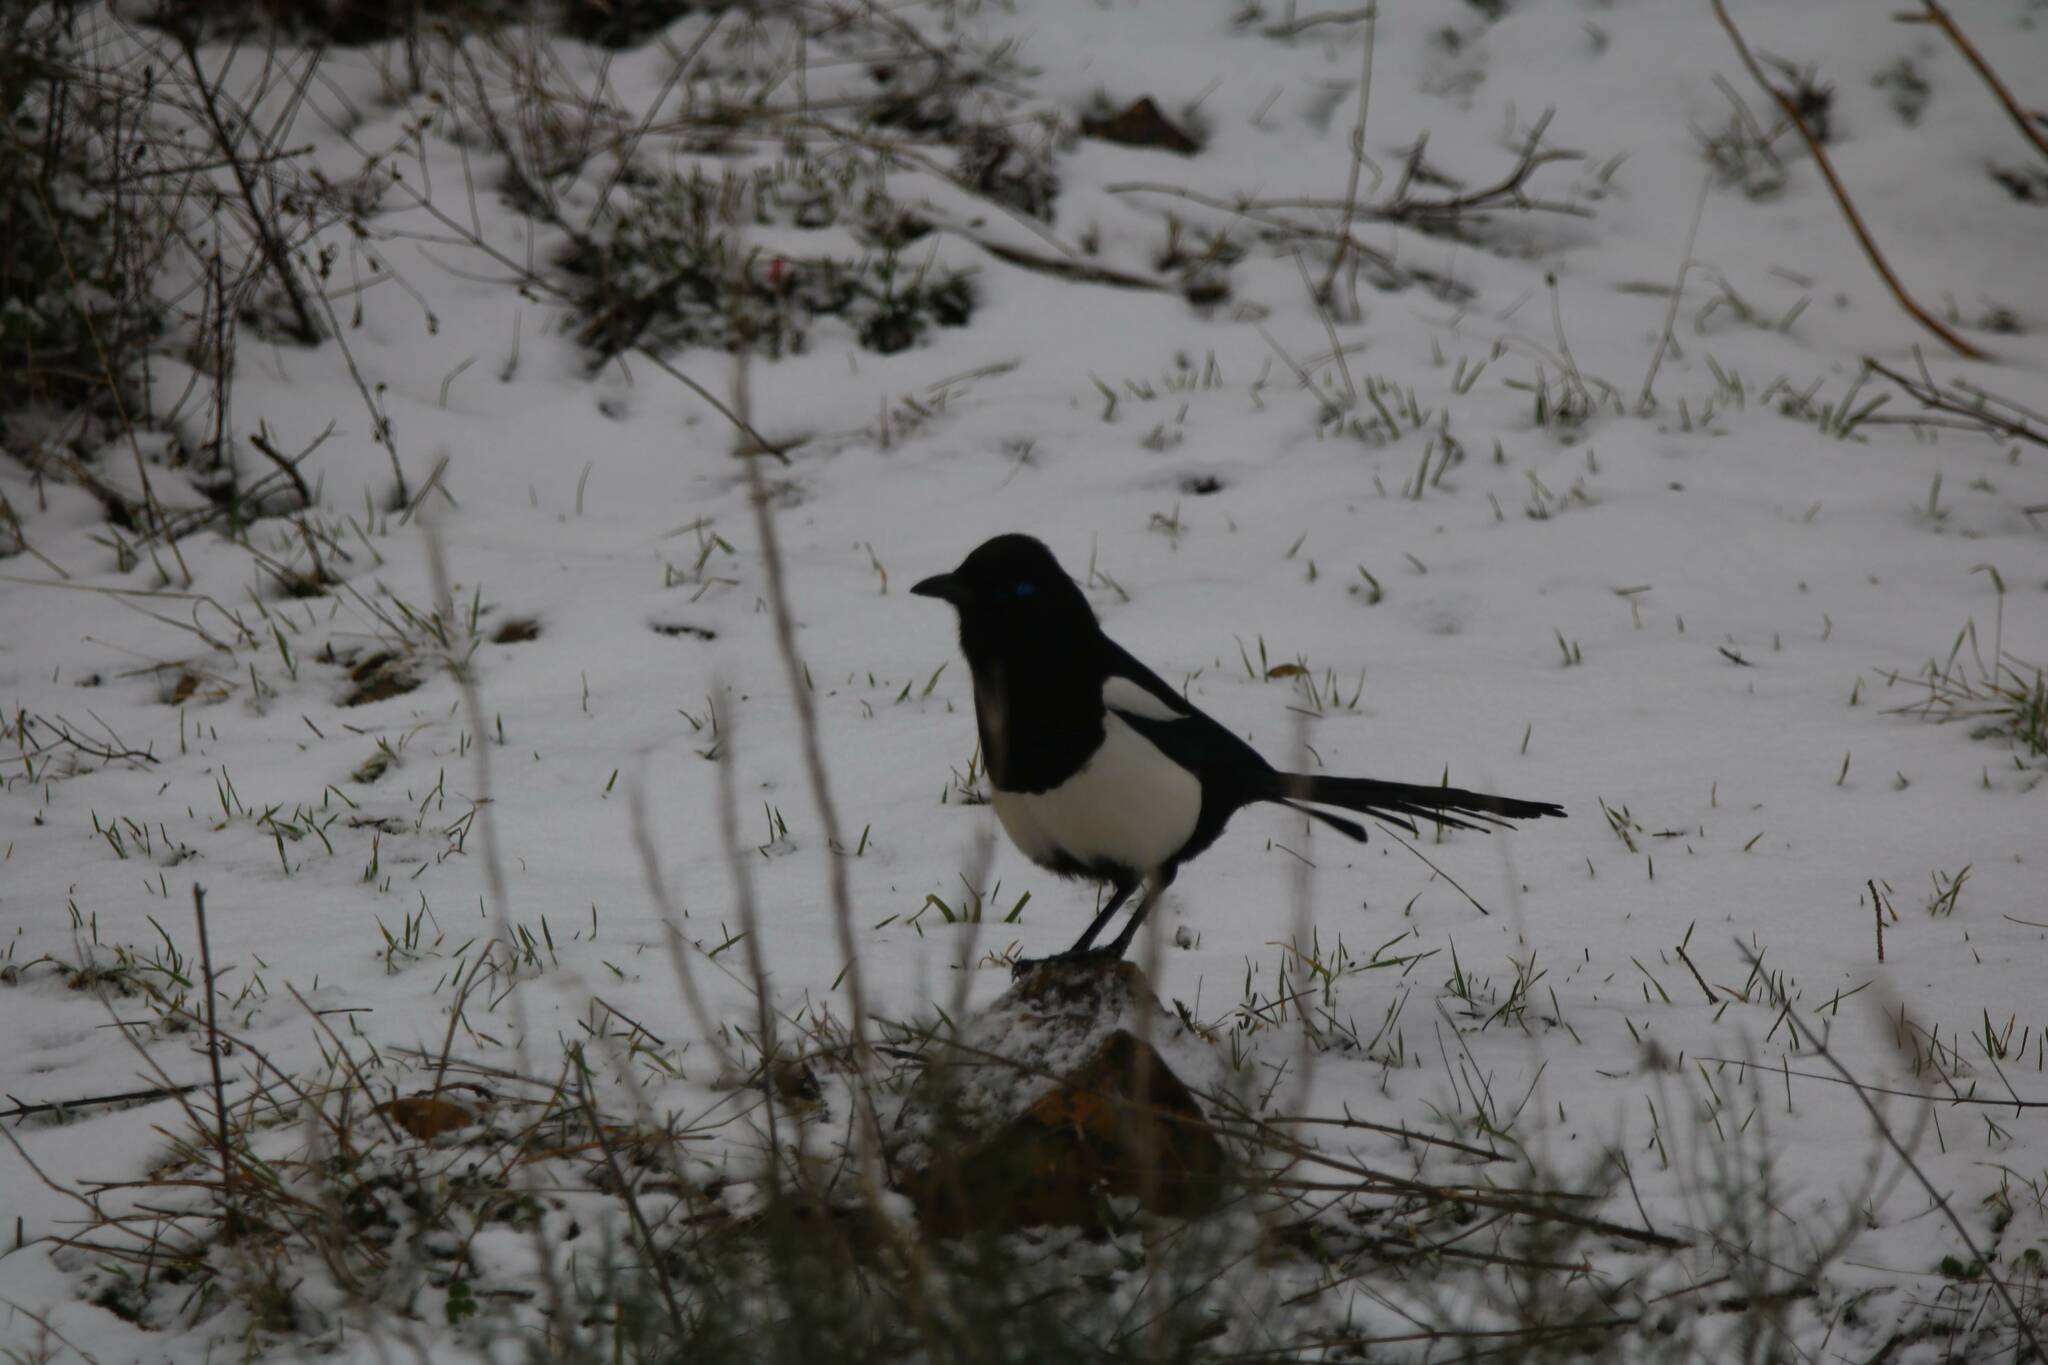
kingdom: Animalia
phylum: Chordata
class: Aves
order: Passeriformes
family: Corvidae
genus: Pica
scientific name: Pica mauritanica
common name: Maghreb magpie
